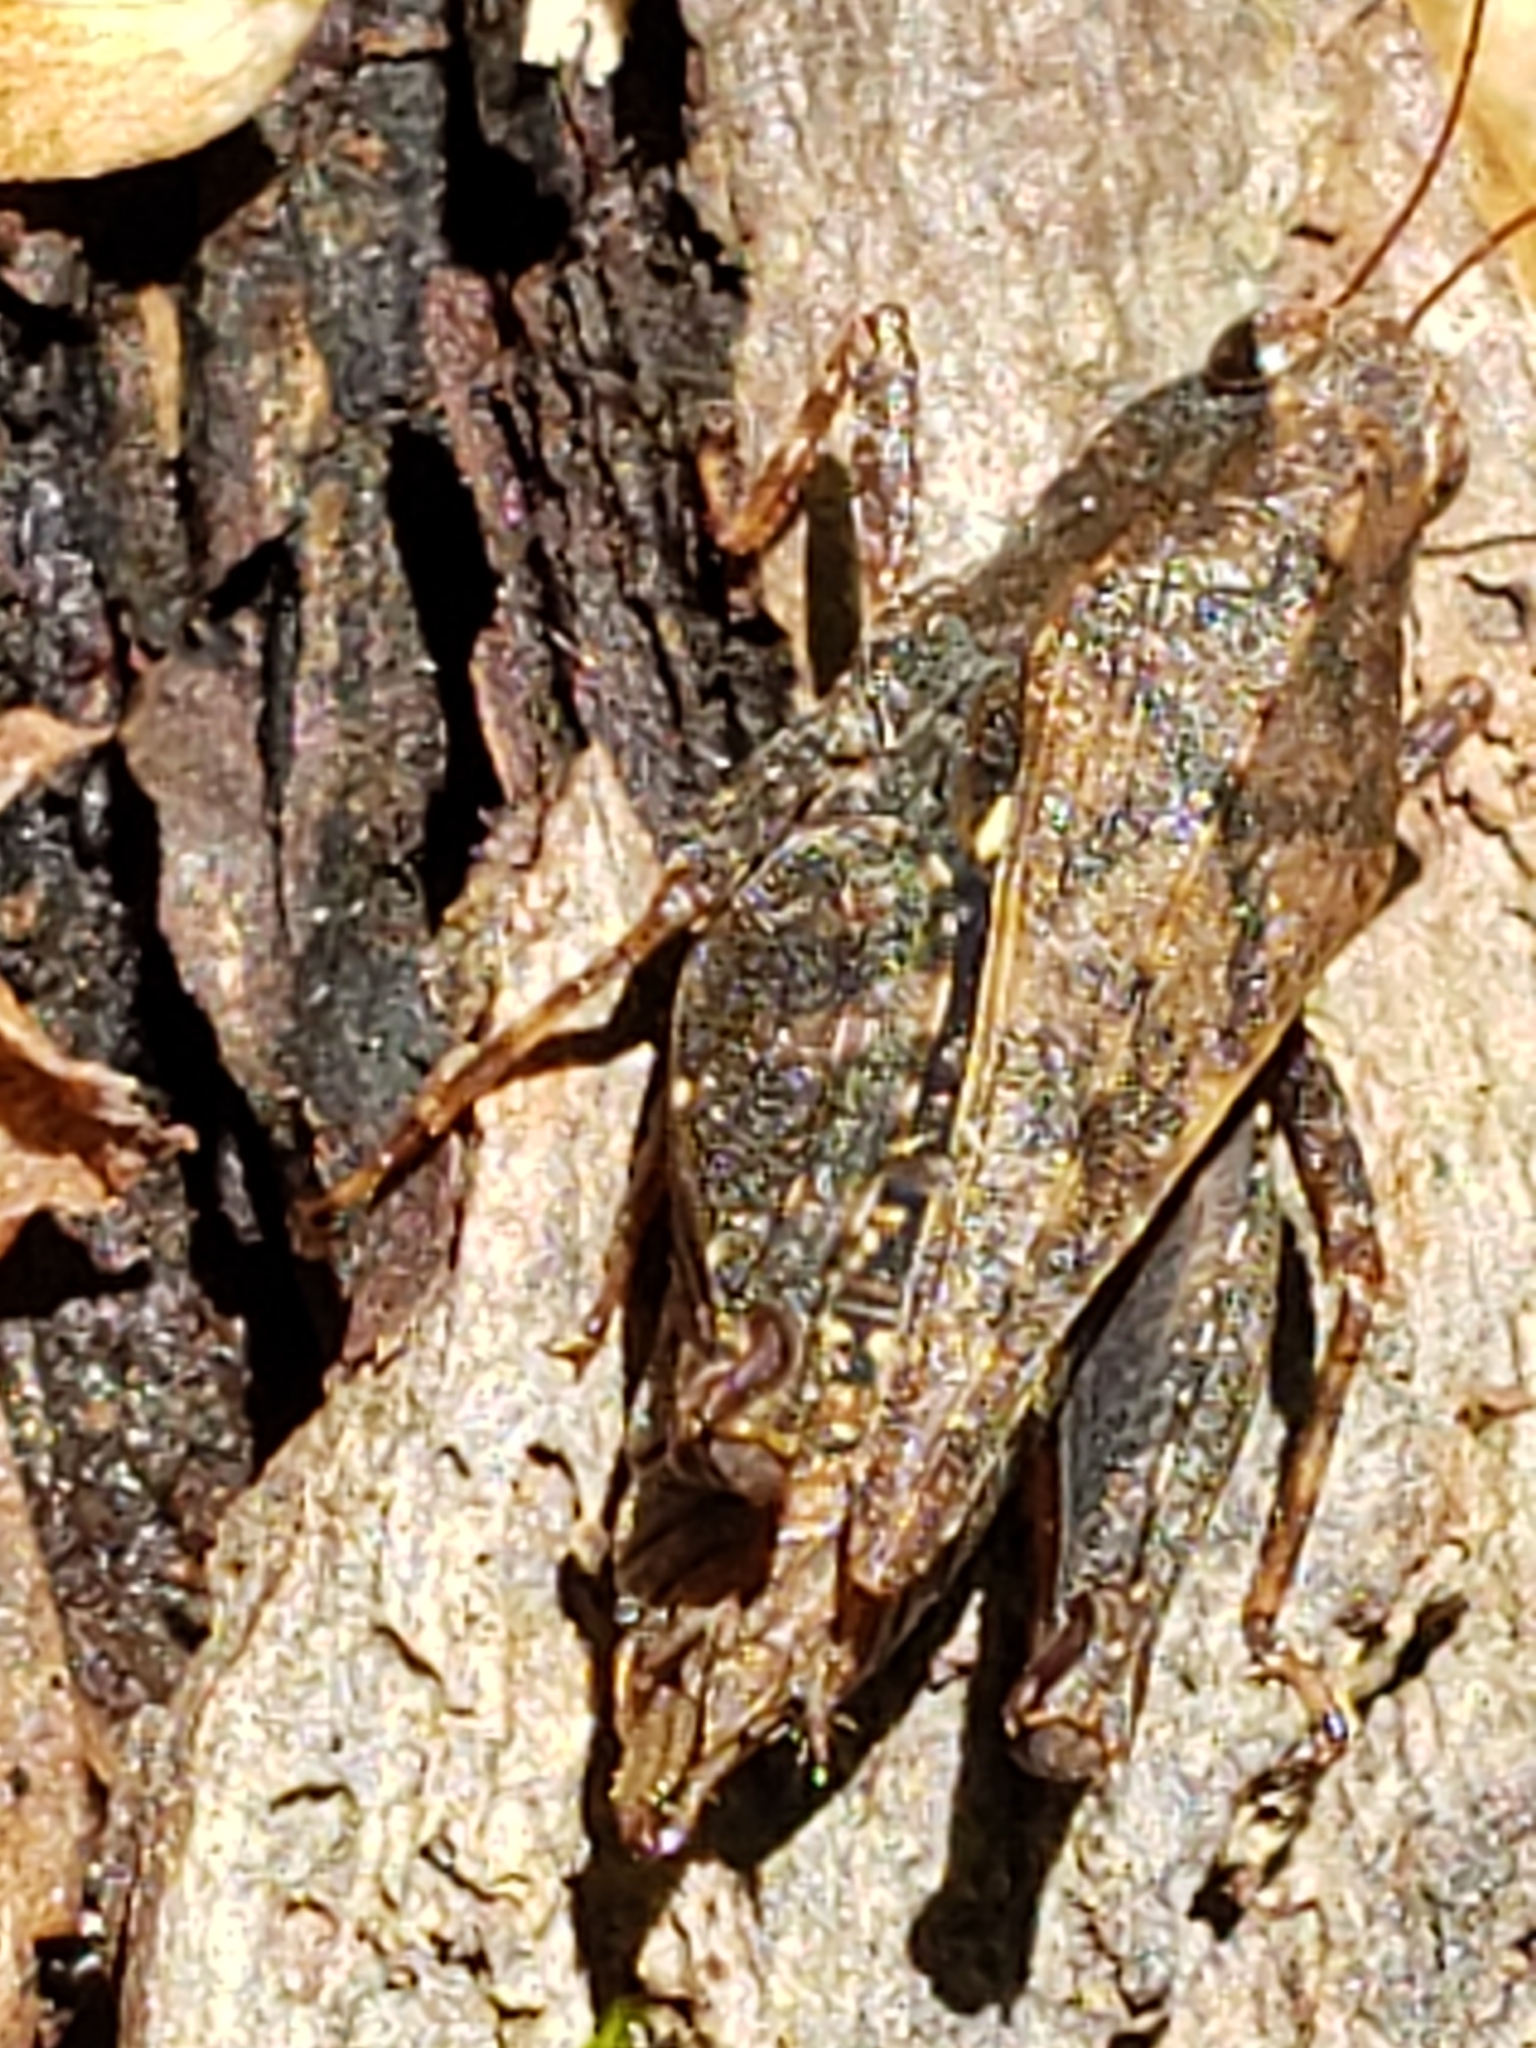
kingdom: Animalia
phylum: Arthropoda
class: Insecta
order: Orthoptera
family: Tetrigidae
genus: Tettigidea
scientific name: Tettigidea laterale
